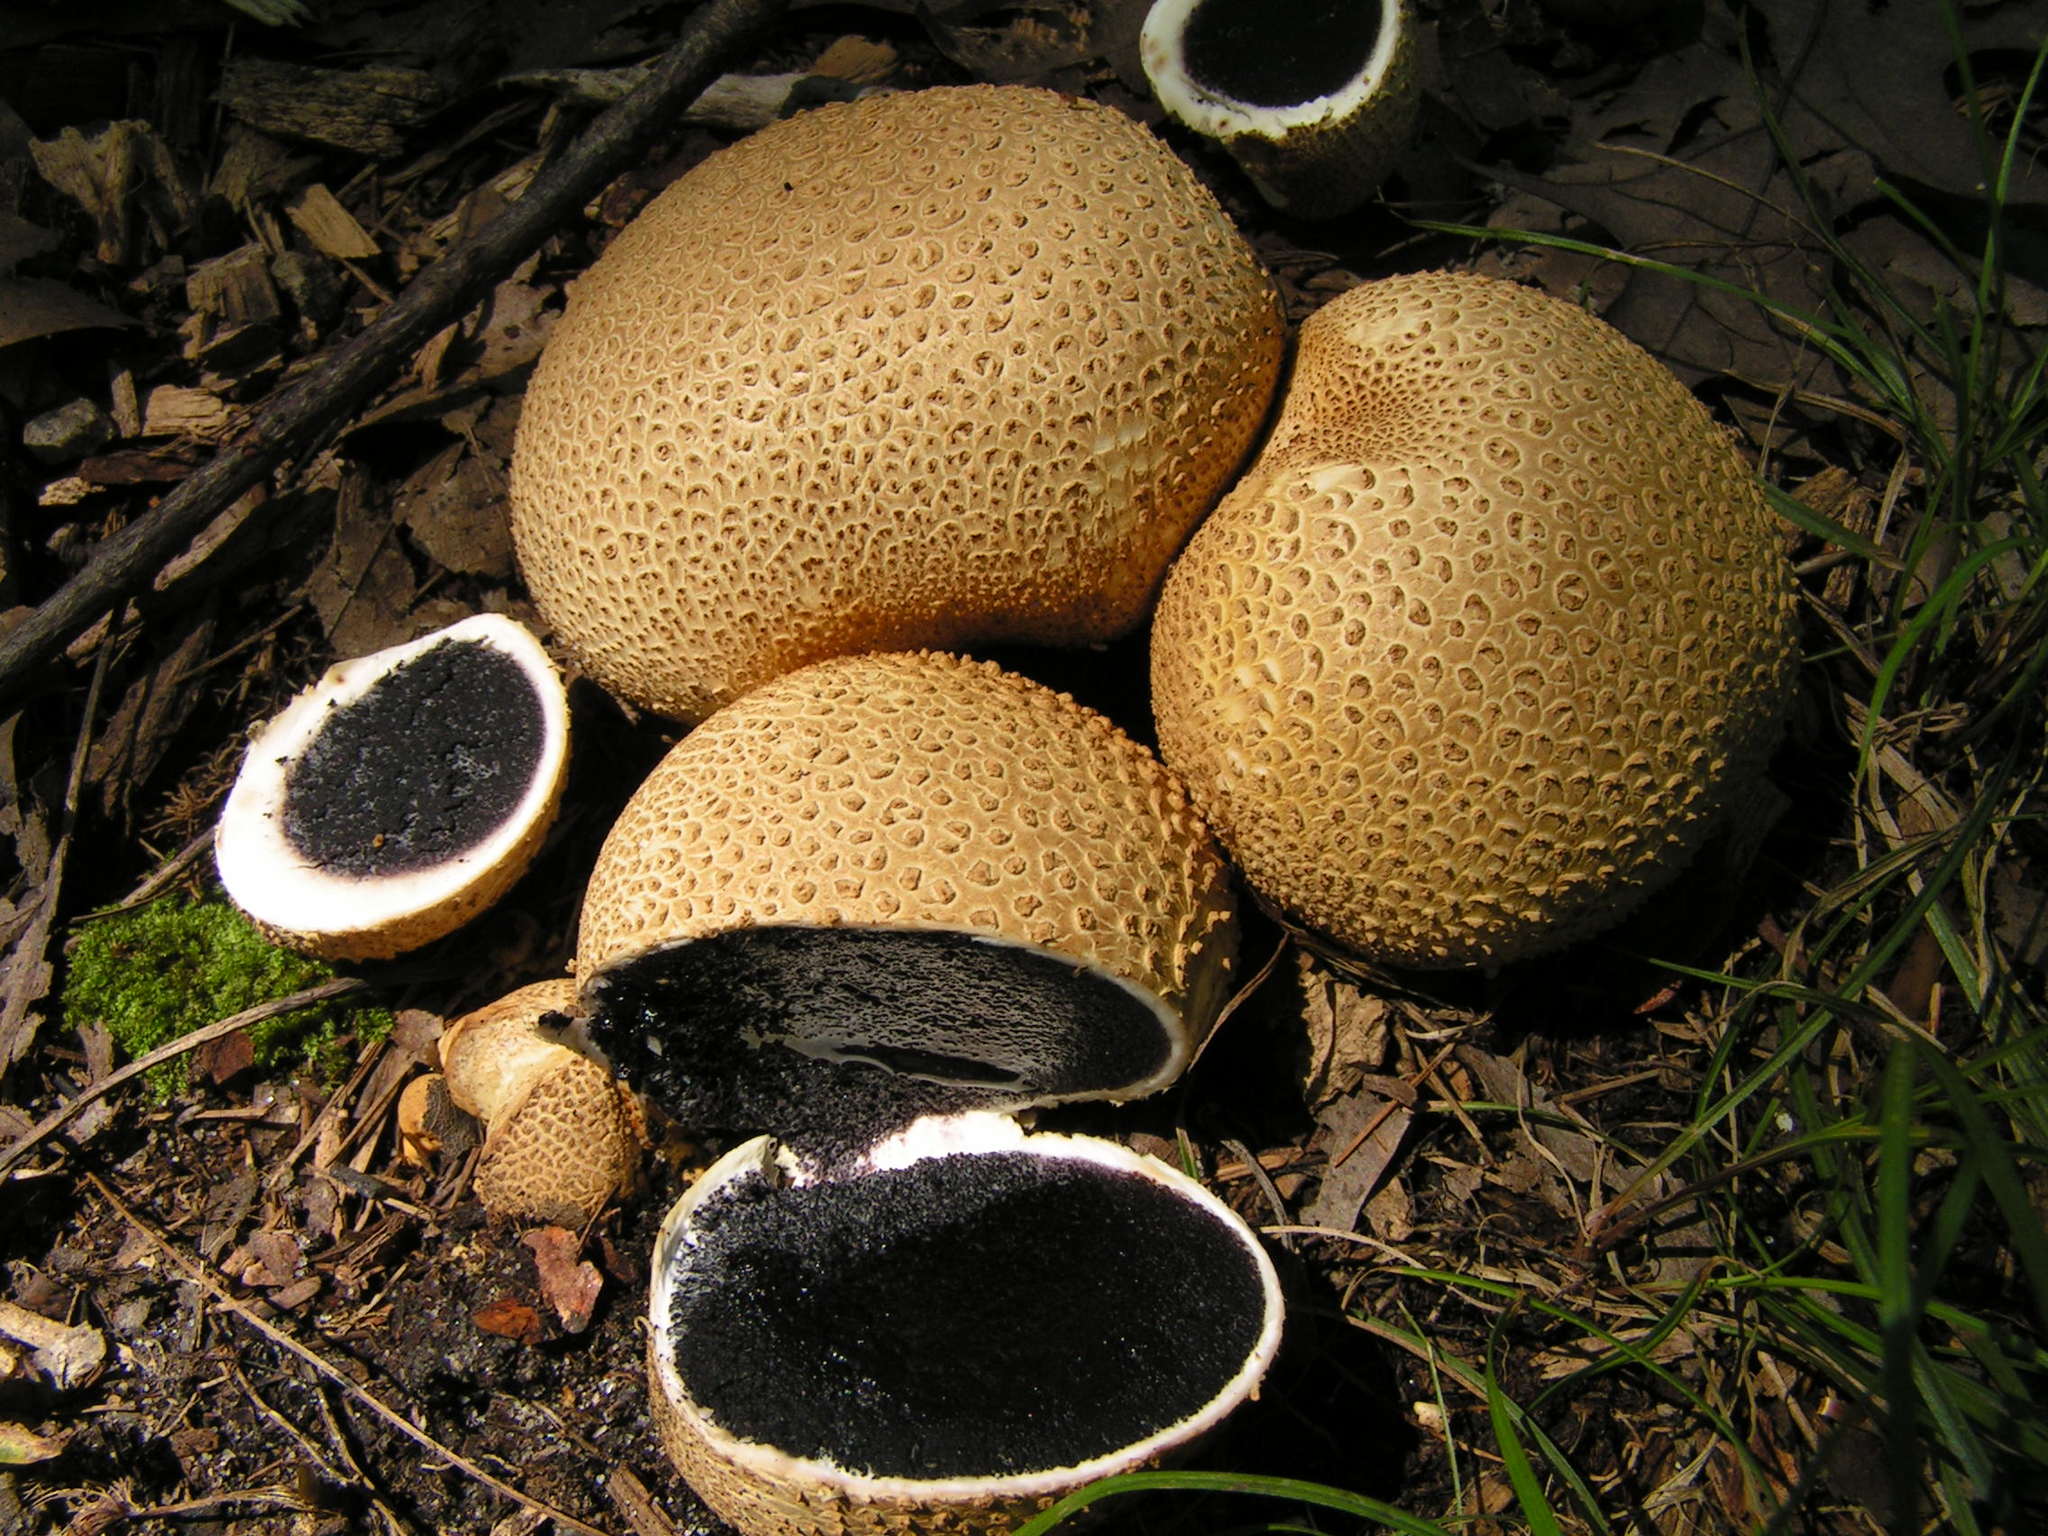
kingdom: Fungi
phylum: Basidiomycota
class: Agaricomycetes
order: Boletales
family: Sclerodermataceae
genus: Scleroderma
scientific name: Scleroderma citrinum
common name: Common earthball
